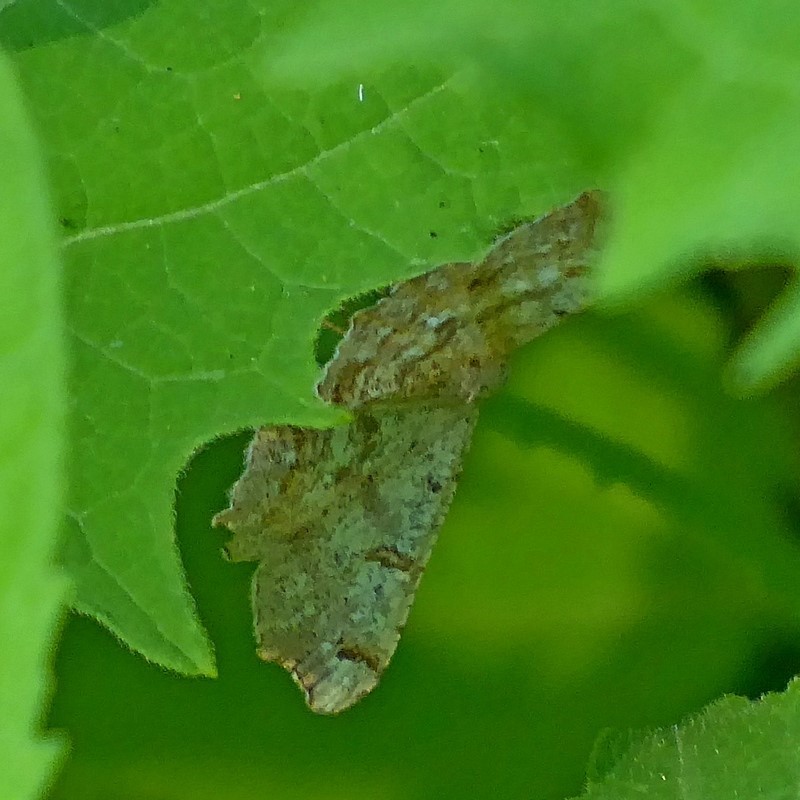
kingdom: Animalia
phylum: Arthropoda
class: Insecta
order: Lepidoptera
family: Geometridae
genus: Dissomorphia
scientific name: Dissomorphia australiaria
